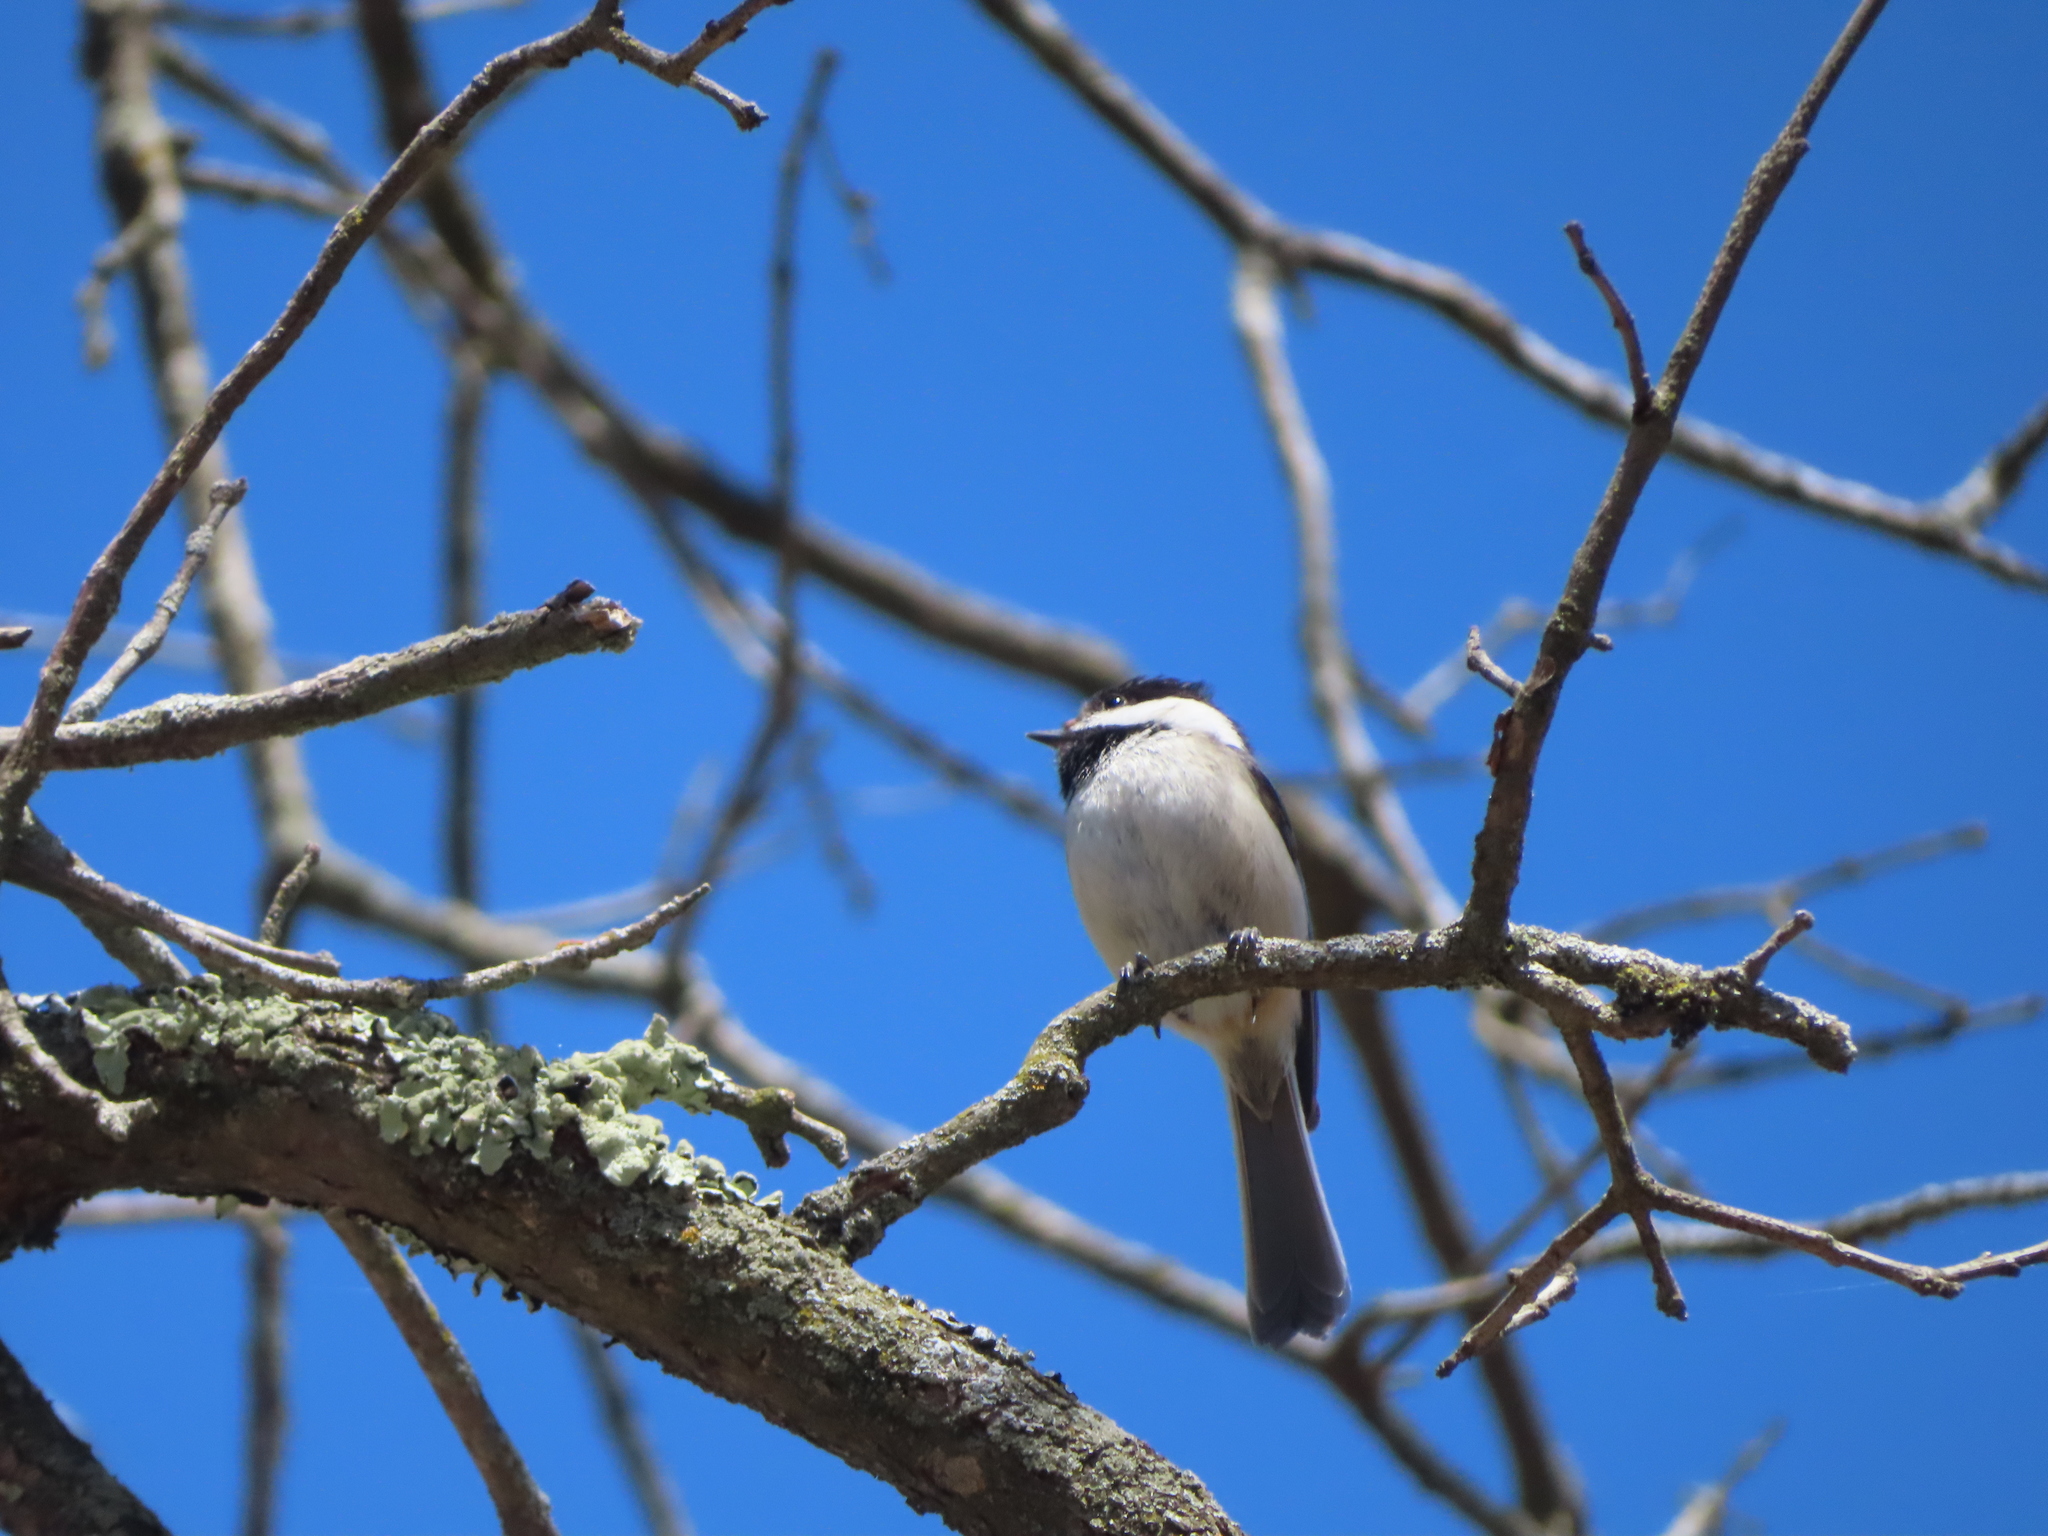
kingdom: Animalia
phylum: Chordata
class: Aves
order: Passeriformes
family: Paridae
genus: Poecile
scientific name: Poecile atricapillus
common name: Black-capped chickadee
